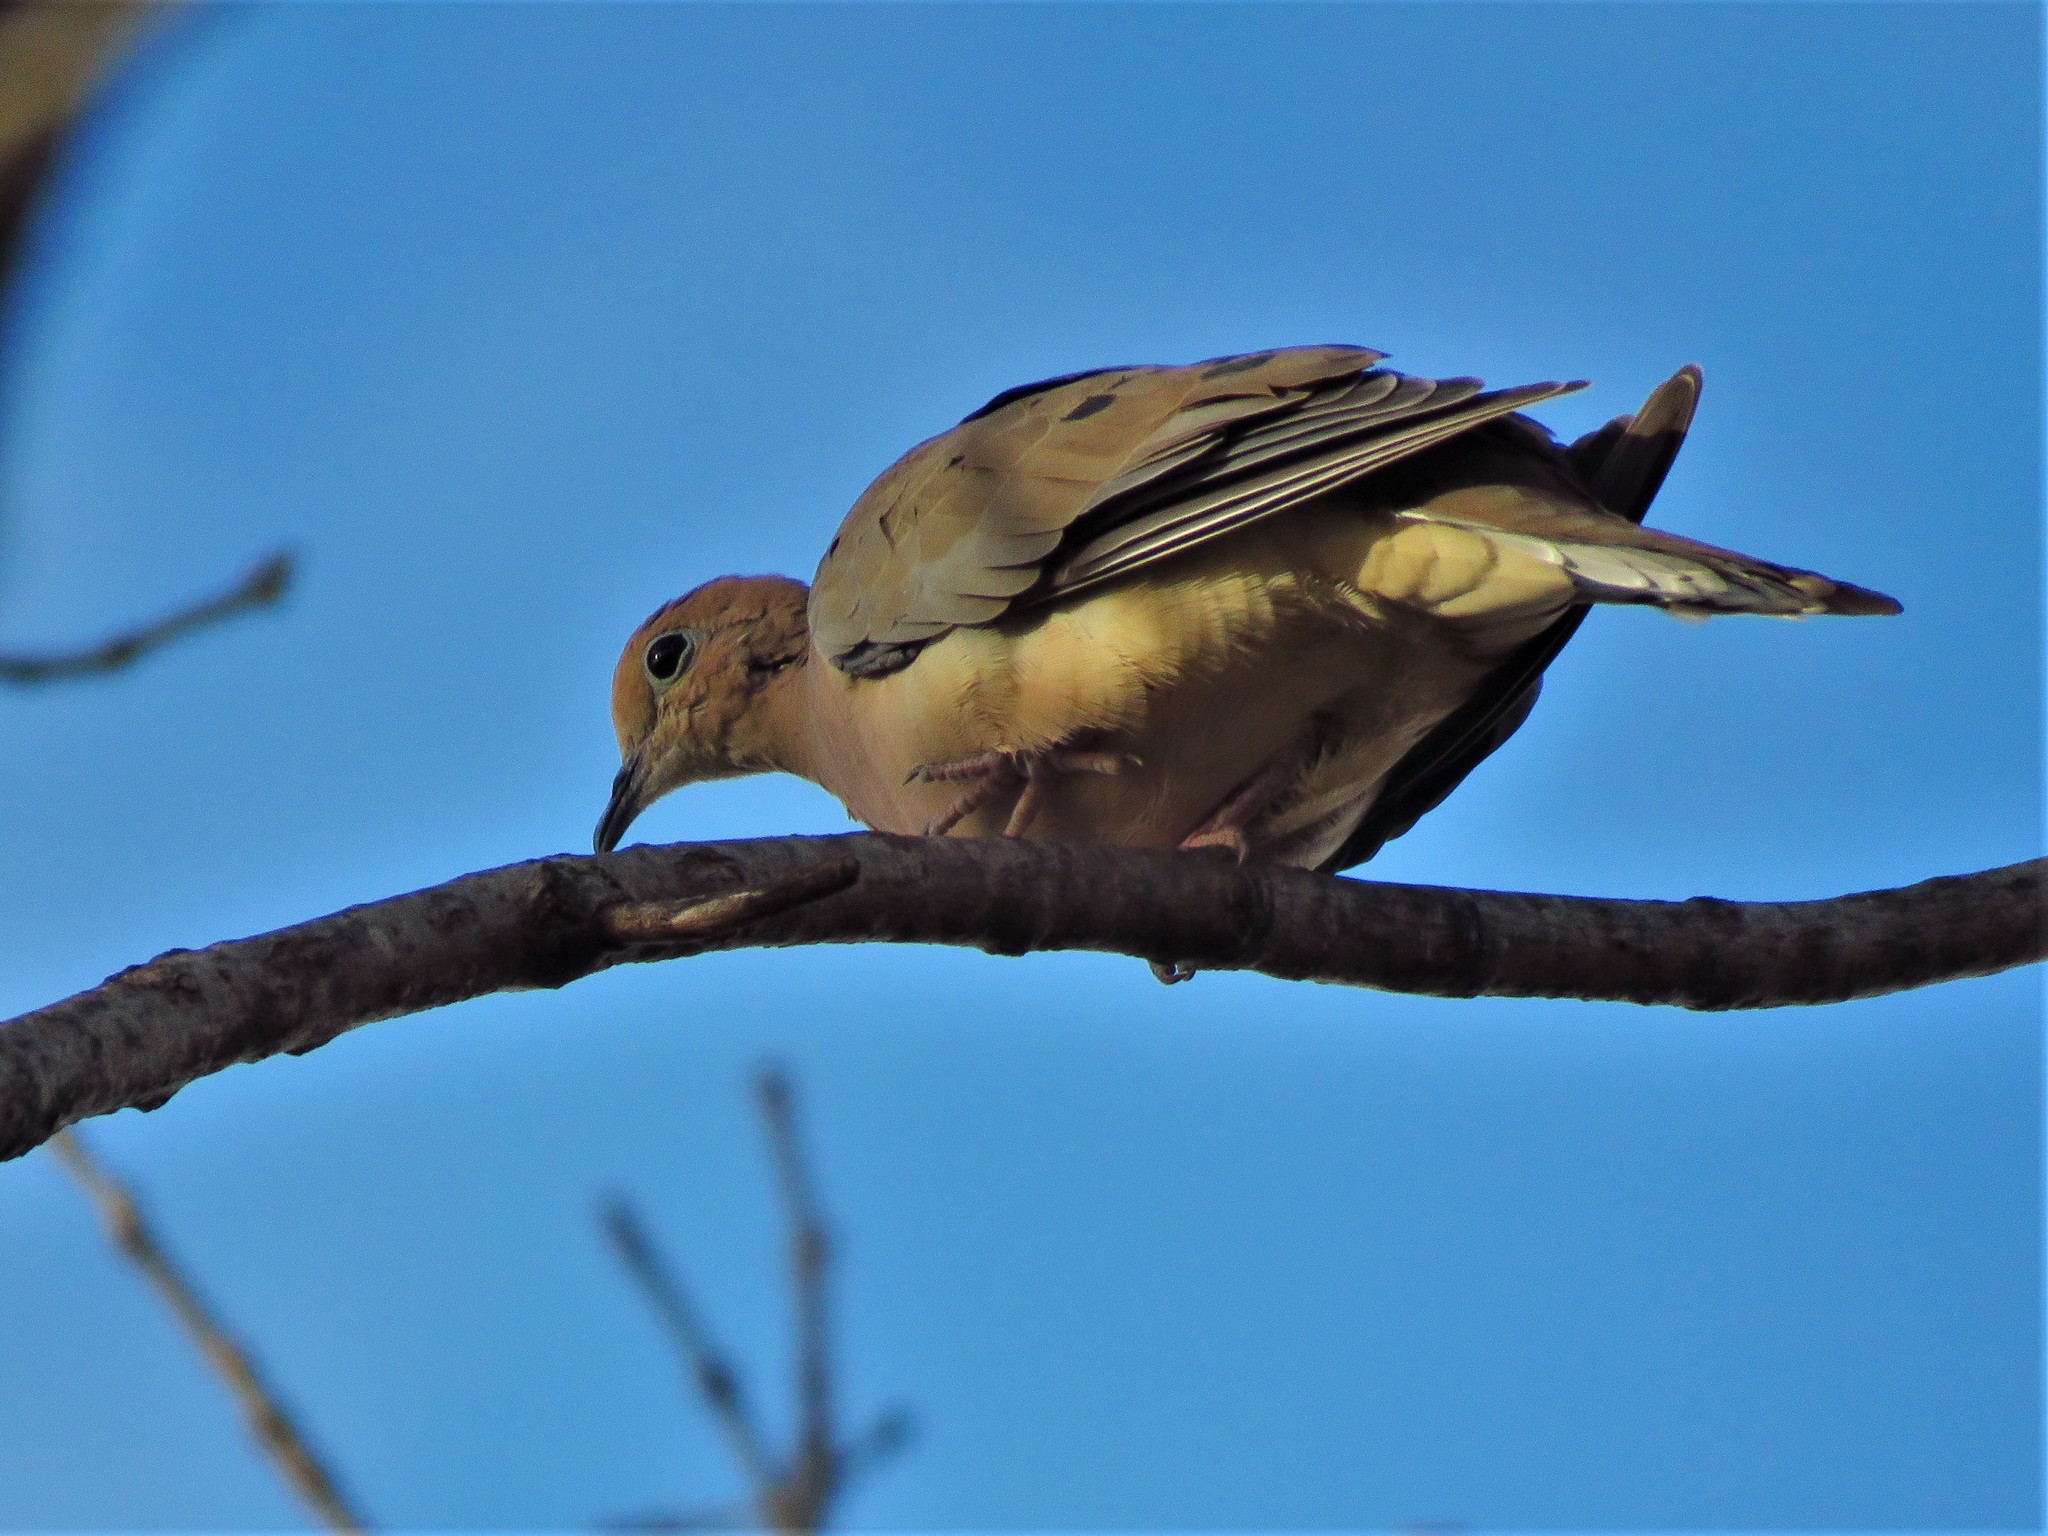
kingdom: Animalia
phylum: Chordata
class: Aves
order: Columbiformes
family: Columbidae
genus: Zenaida
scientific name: Zenaida macroura
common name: Mourning dove
